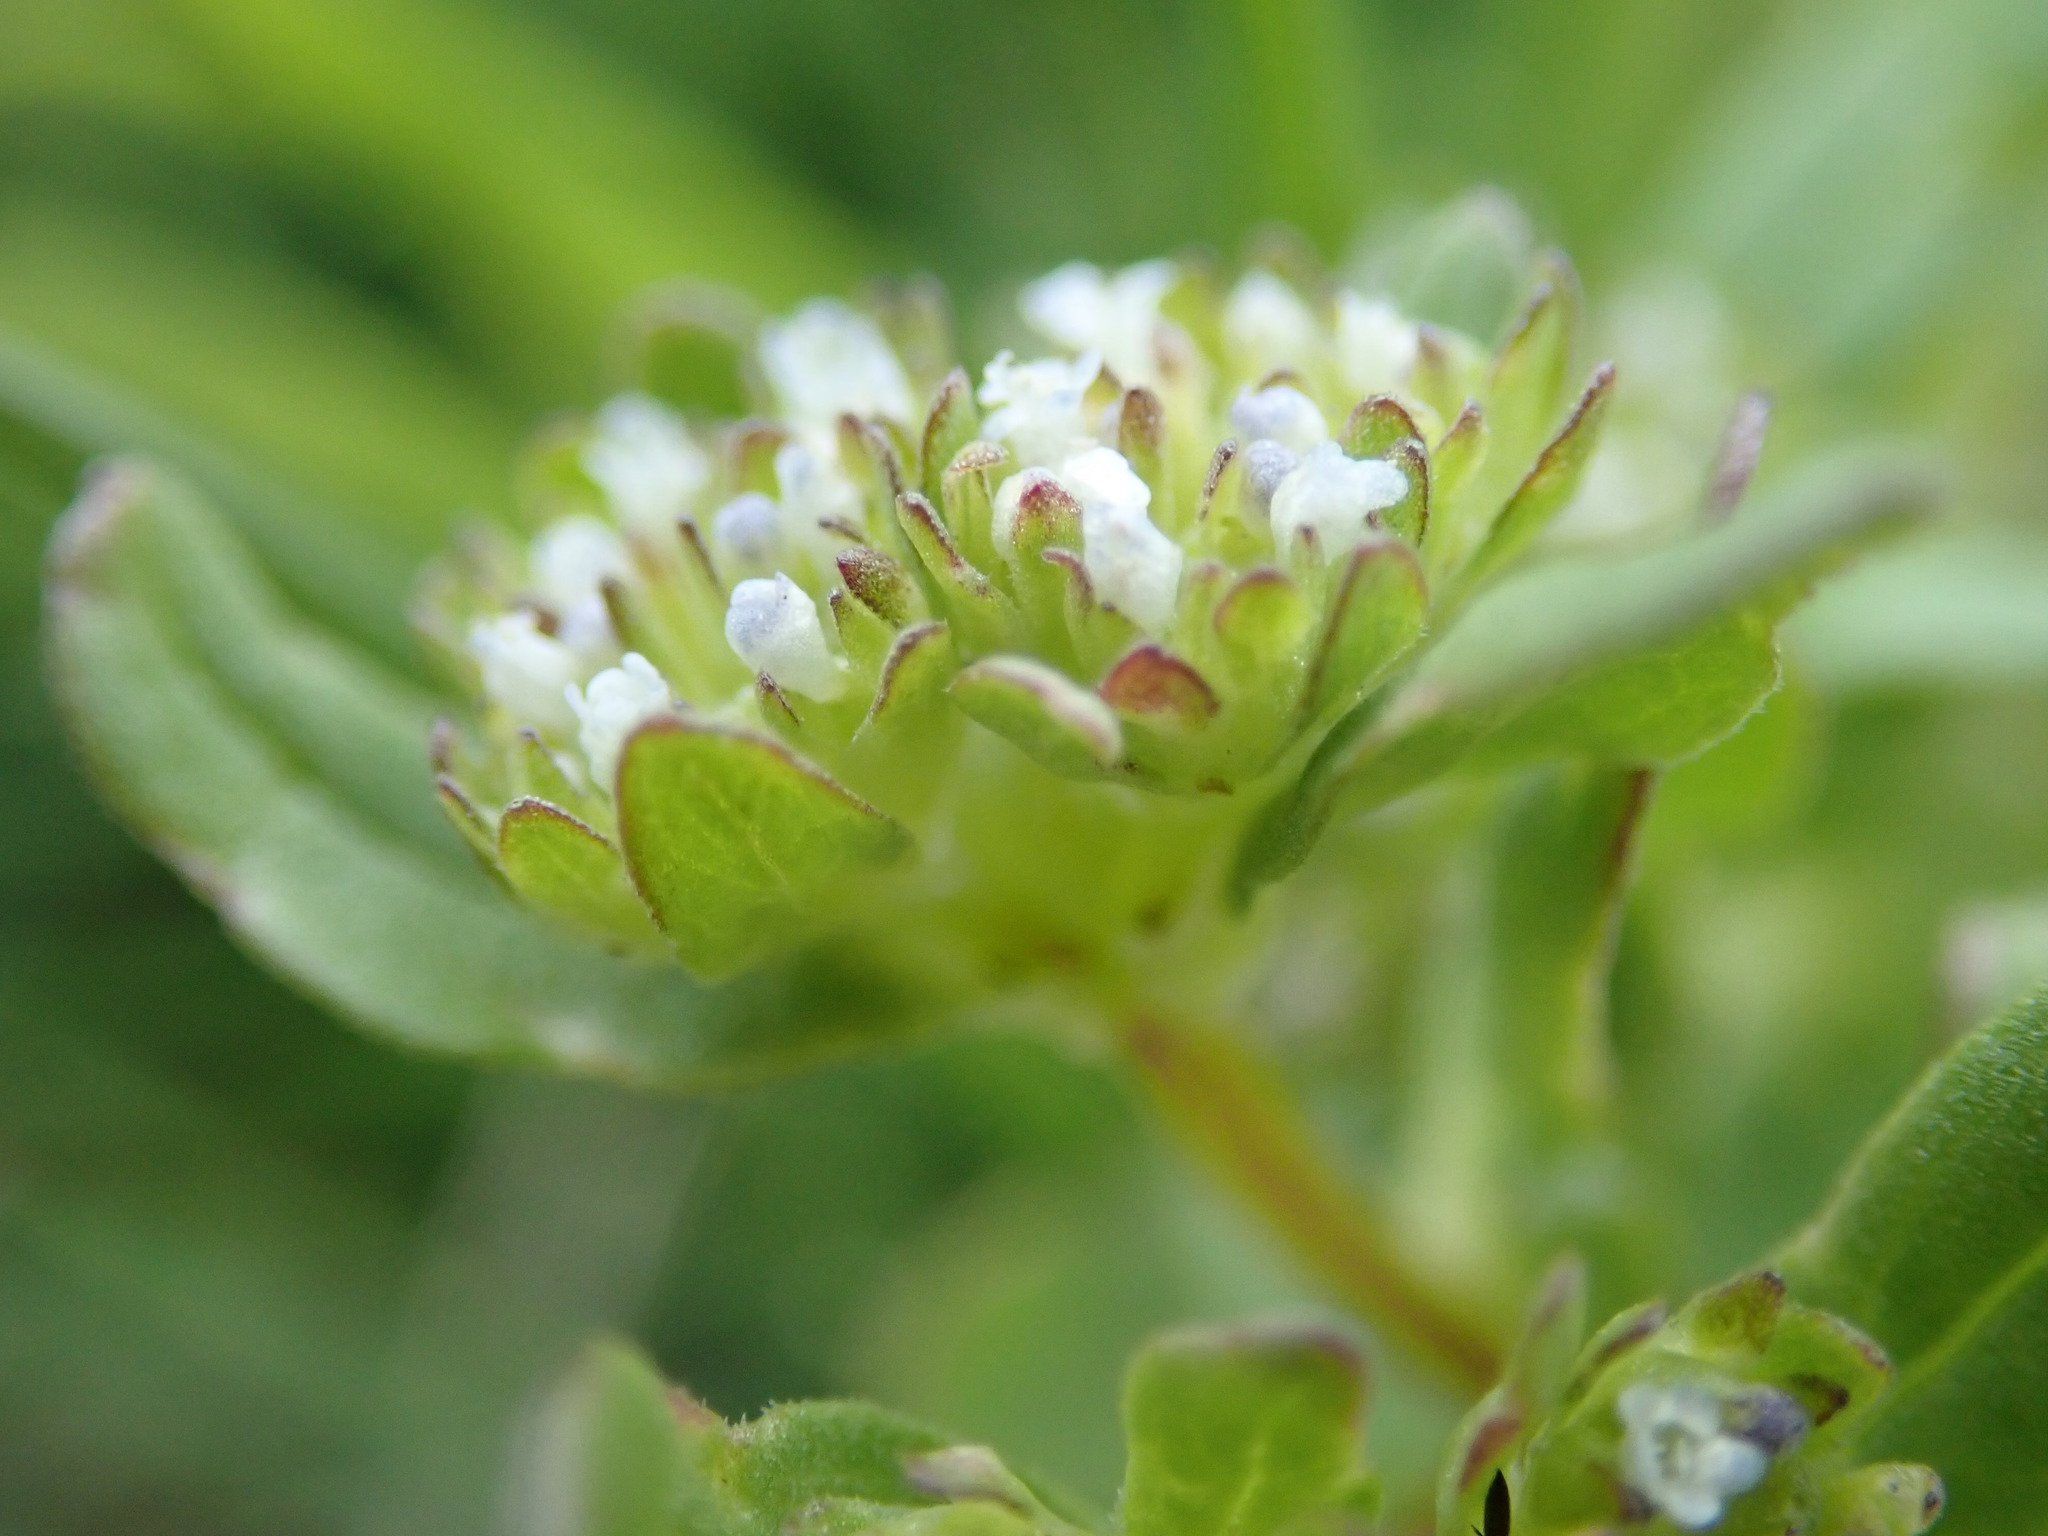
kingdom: Plantae
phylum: Tracheophyta
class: Magnoliopsida
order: Dipsacales
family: Caprifoliaceae
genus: Valerianella
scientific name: Valerianella
